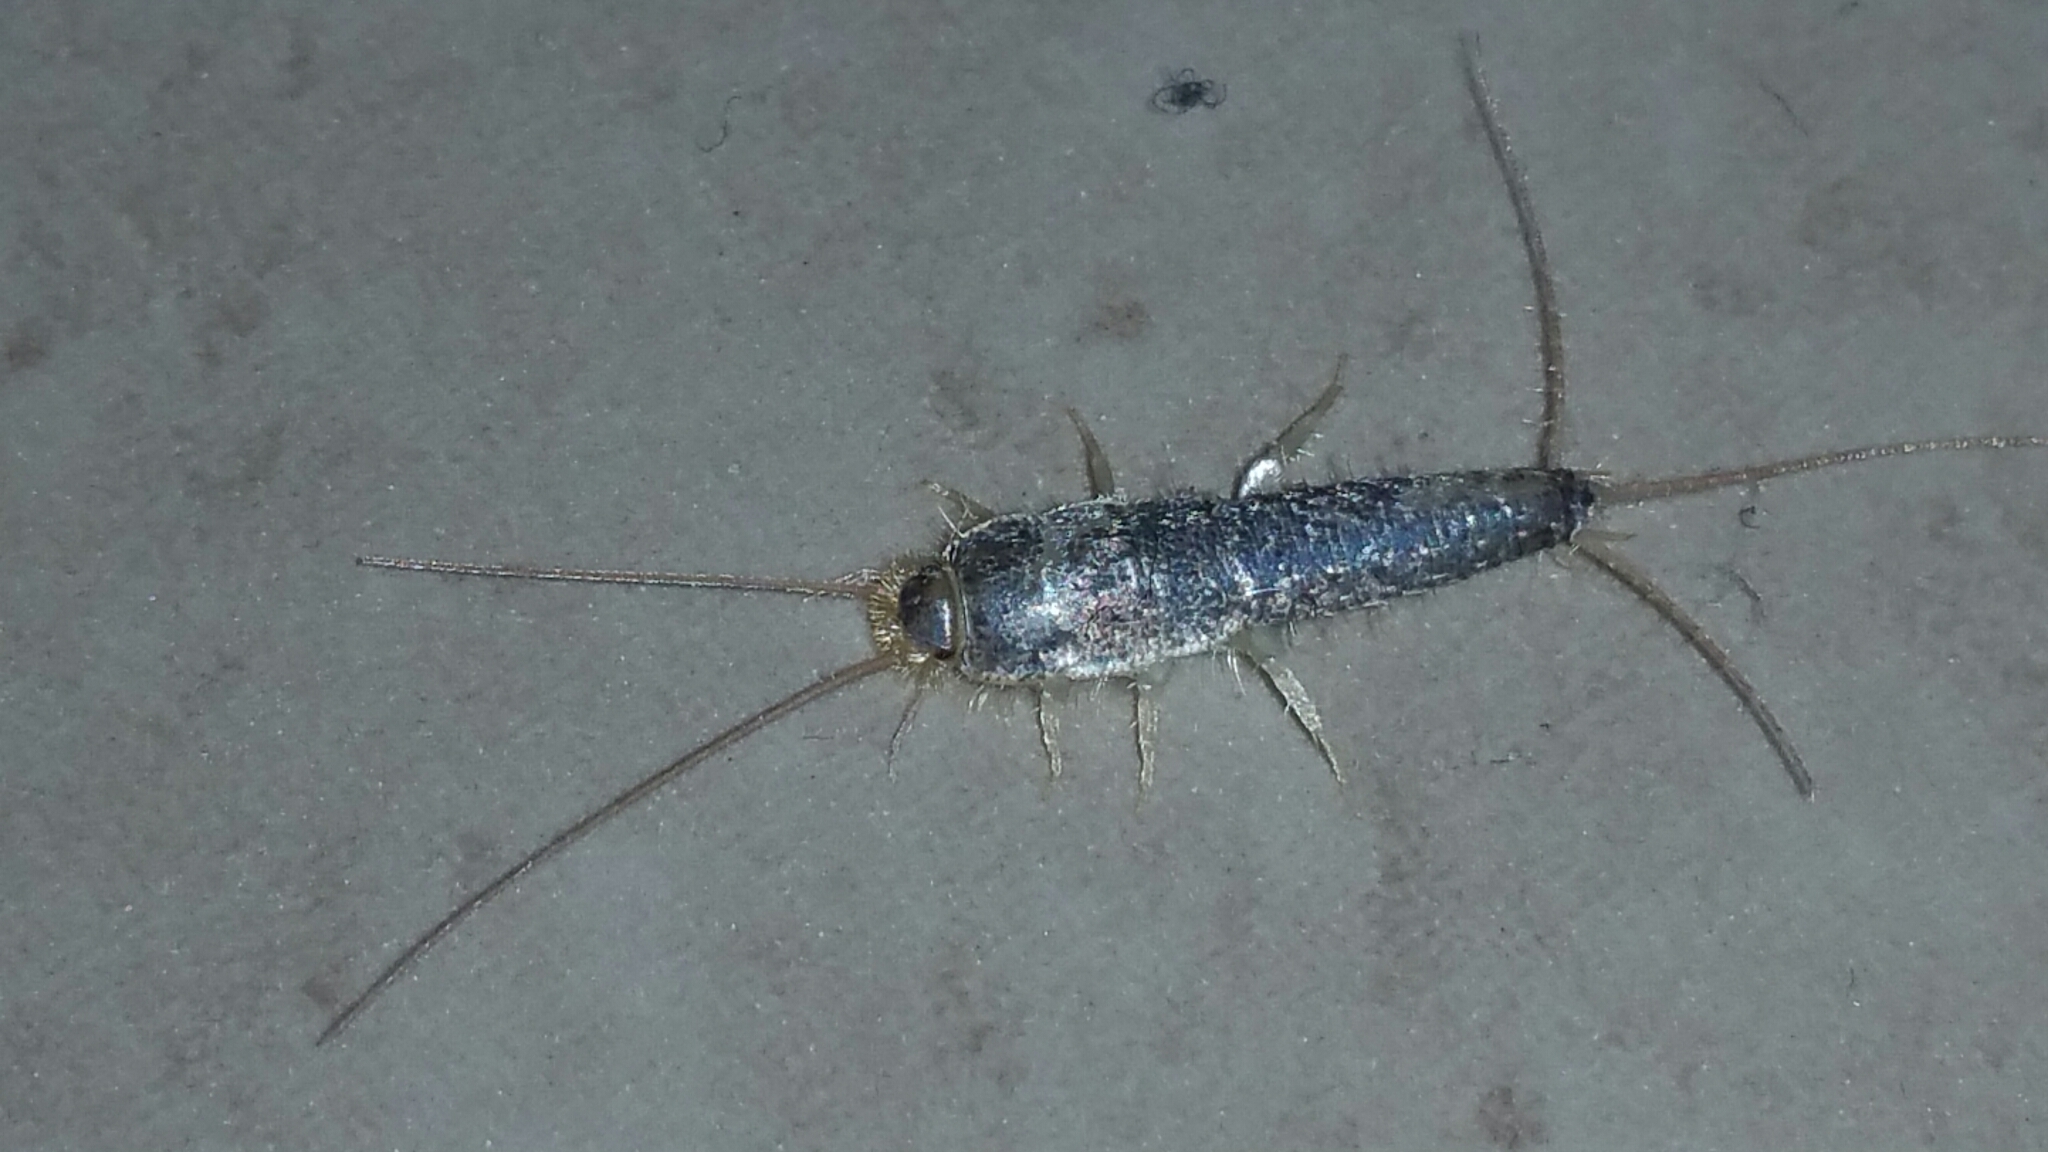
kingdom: Animalia
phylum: Arthropoda
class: Insecta
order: Zygentoma
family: Lepismatidae
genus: Ctenolepisma
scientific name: Ctenolepisma longicaudatum
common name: Silverfish
